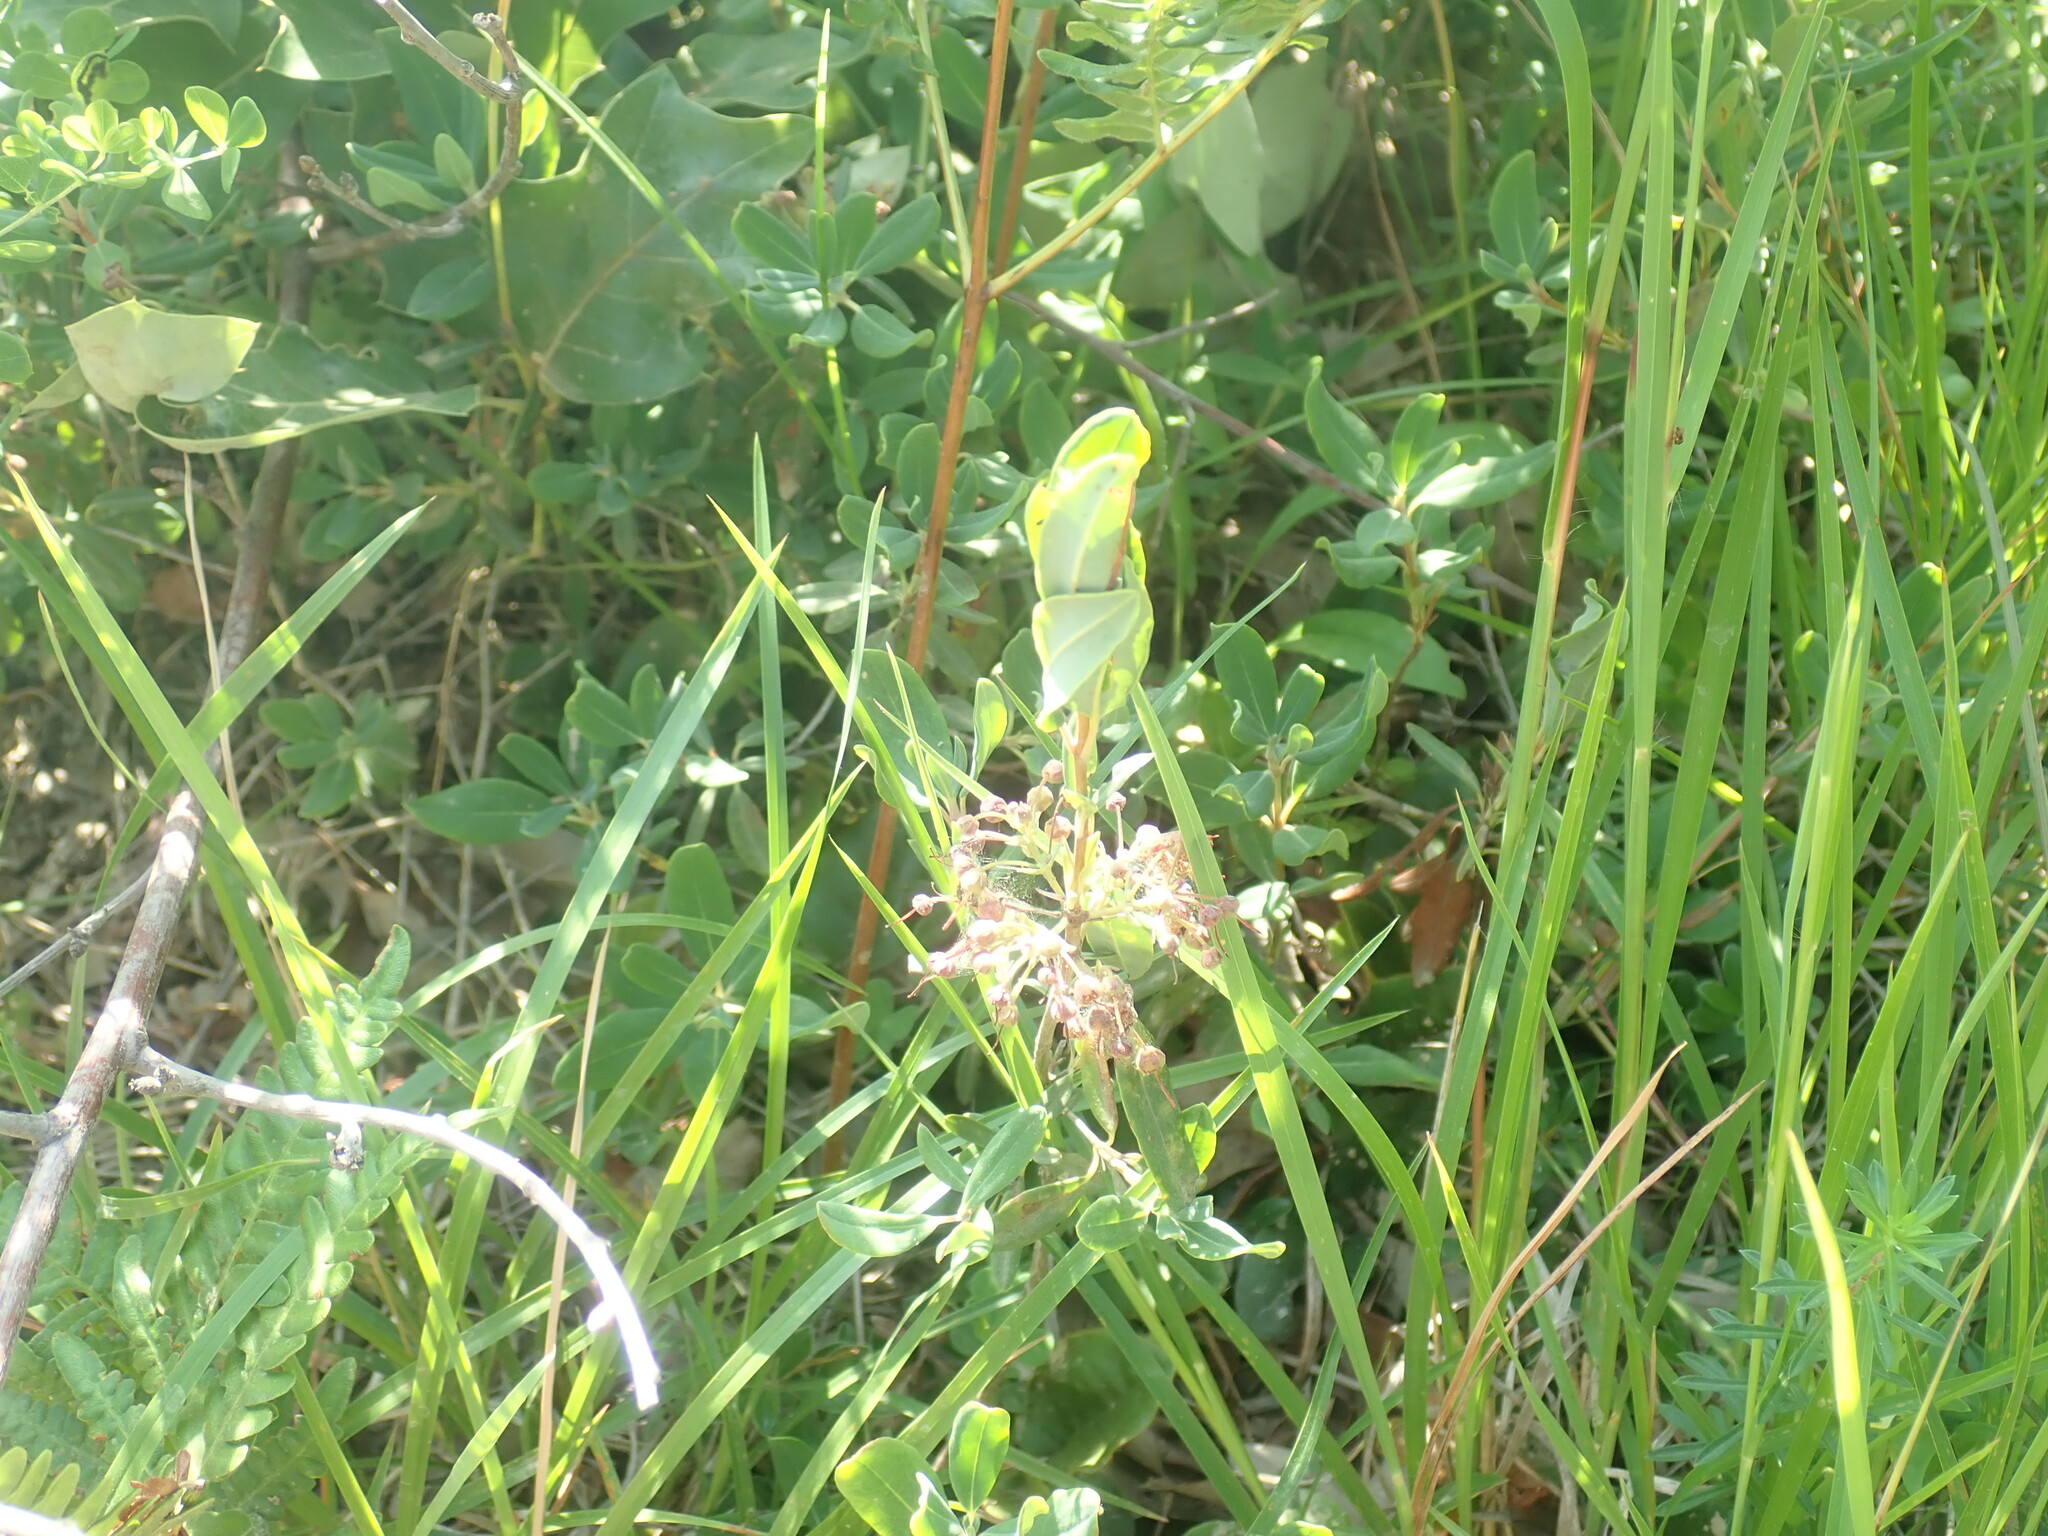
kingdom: Plantae
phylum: Tracheophyta
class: Magnoliopsida
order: Ericales
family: Ericaceae
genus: Kalmia
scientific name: Kalmia angustifolia
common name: Sheep-laurel
